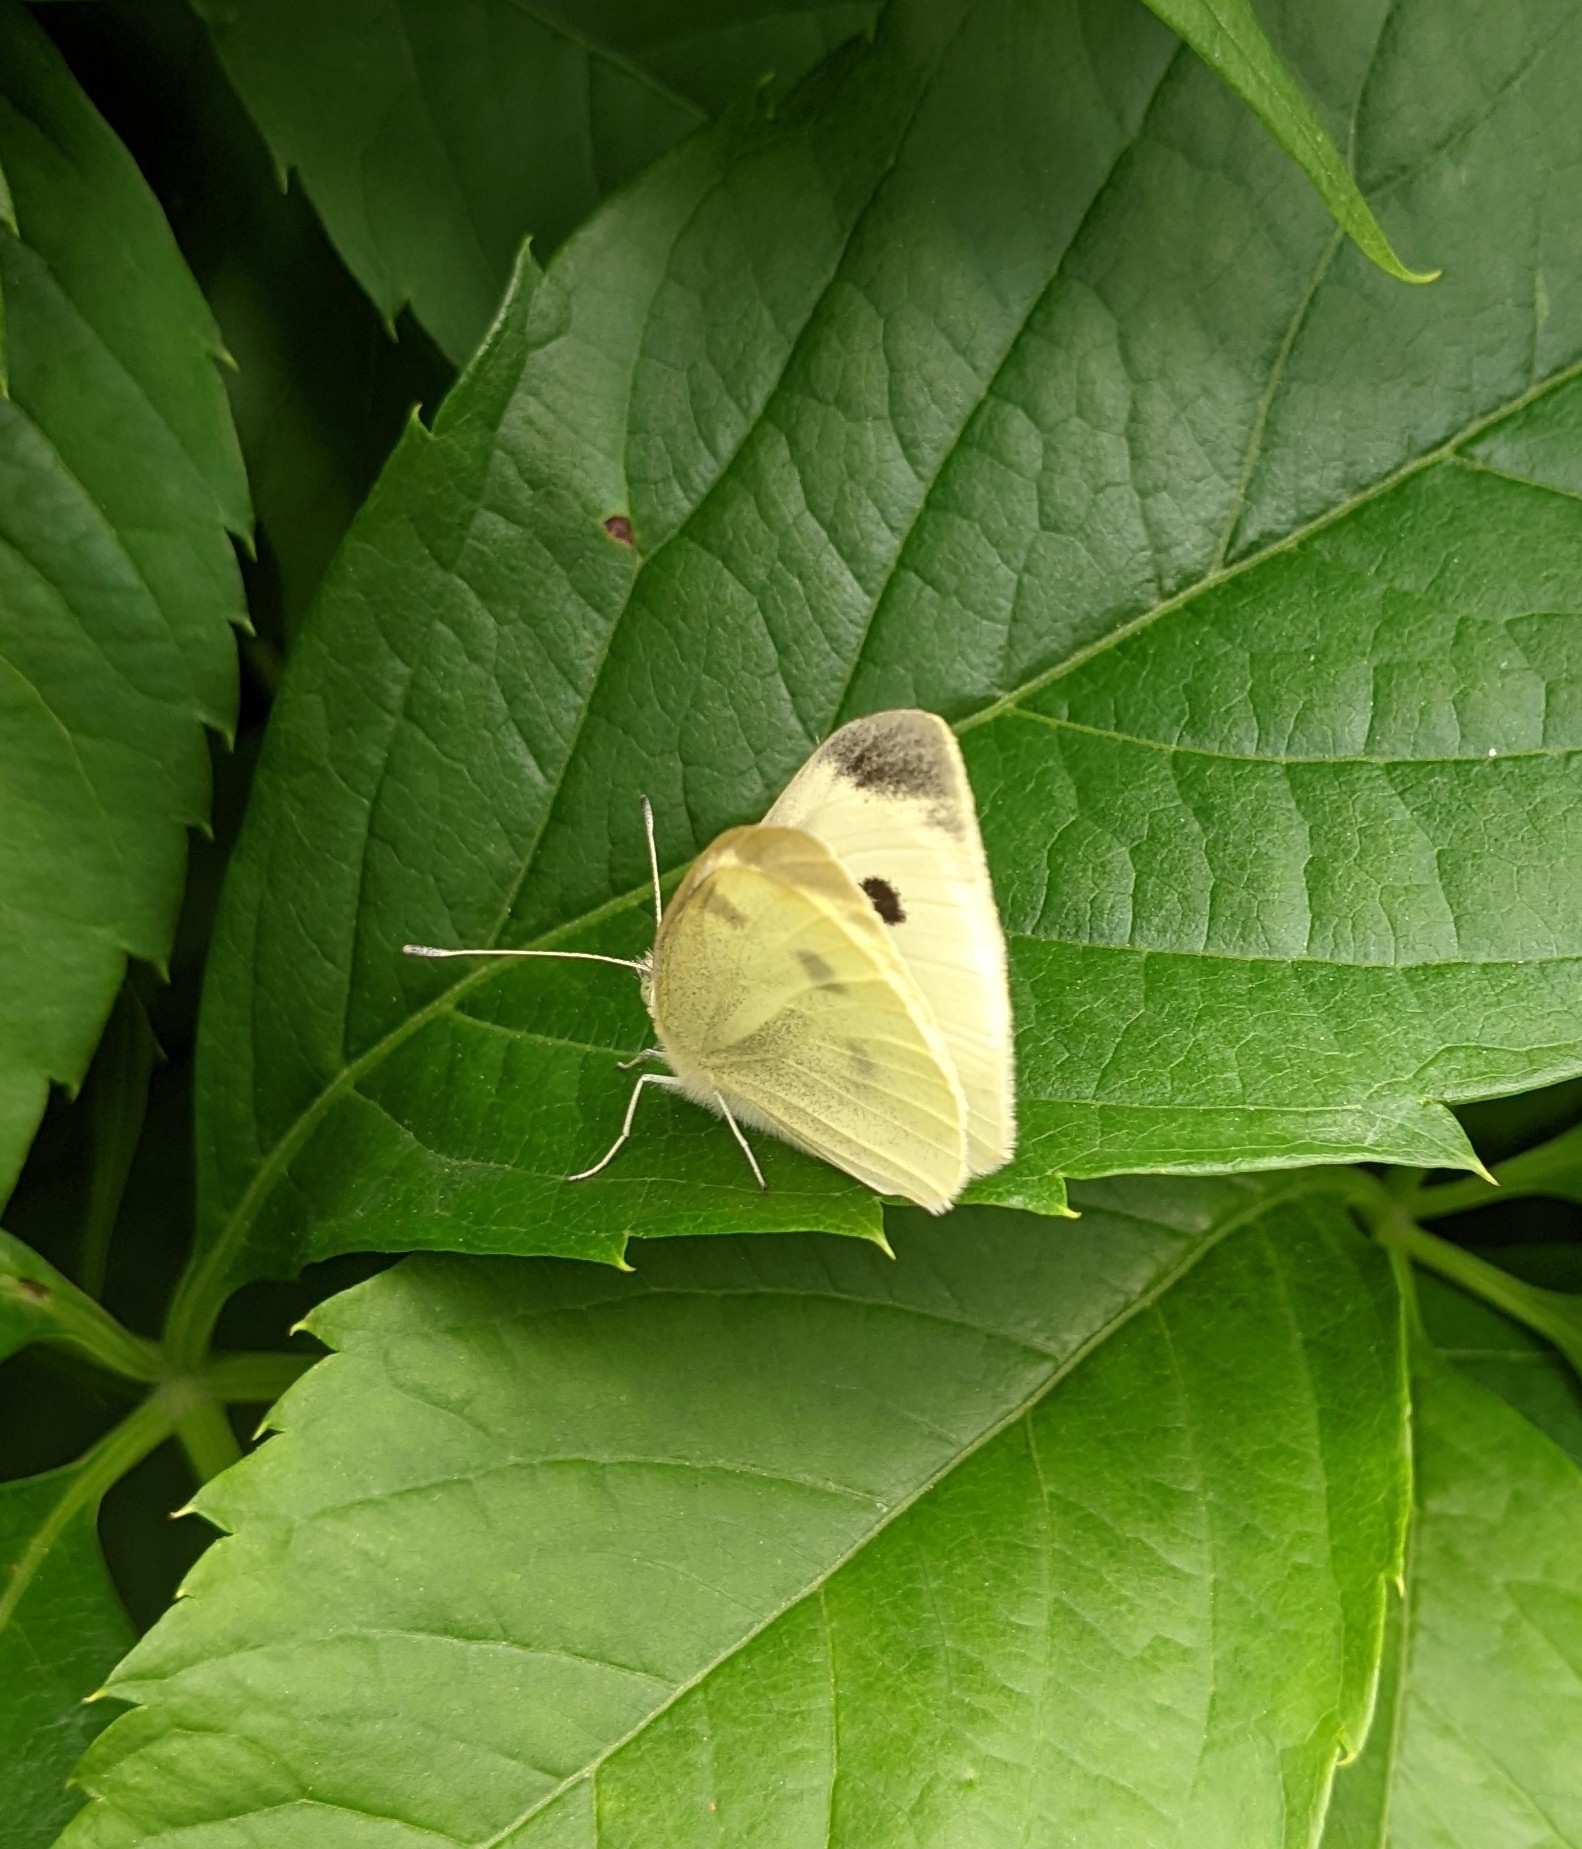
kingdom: Animalia
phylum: Arthropoda
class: Insecta
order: Lepidoptera
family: Pieridae
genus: Pieris
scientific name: Pieris rapae
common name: Small white
